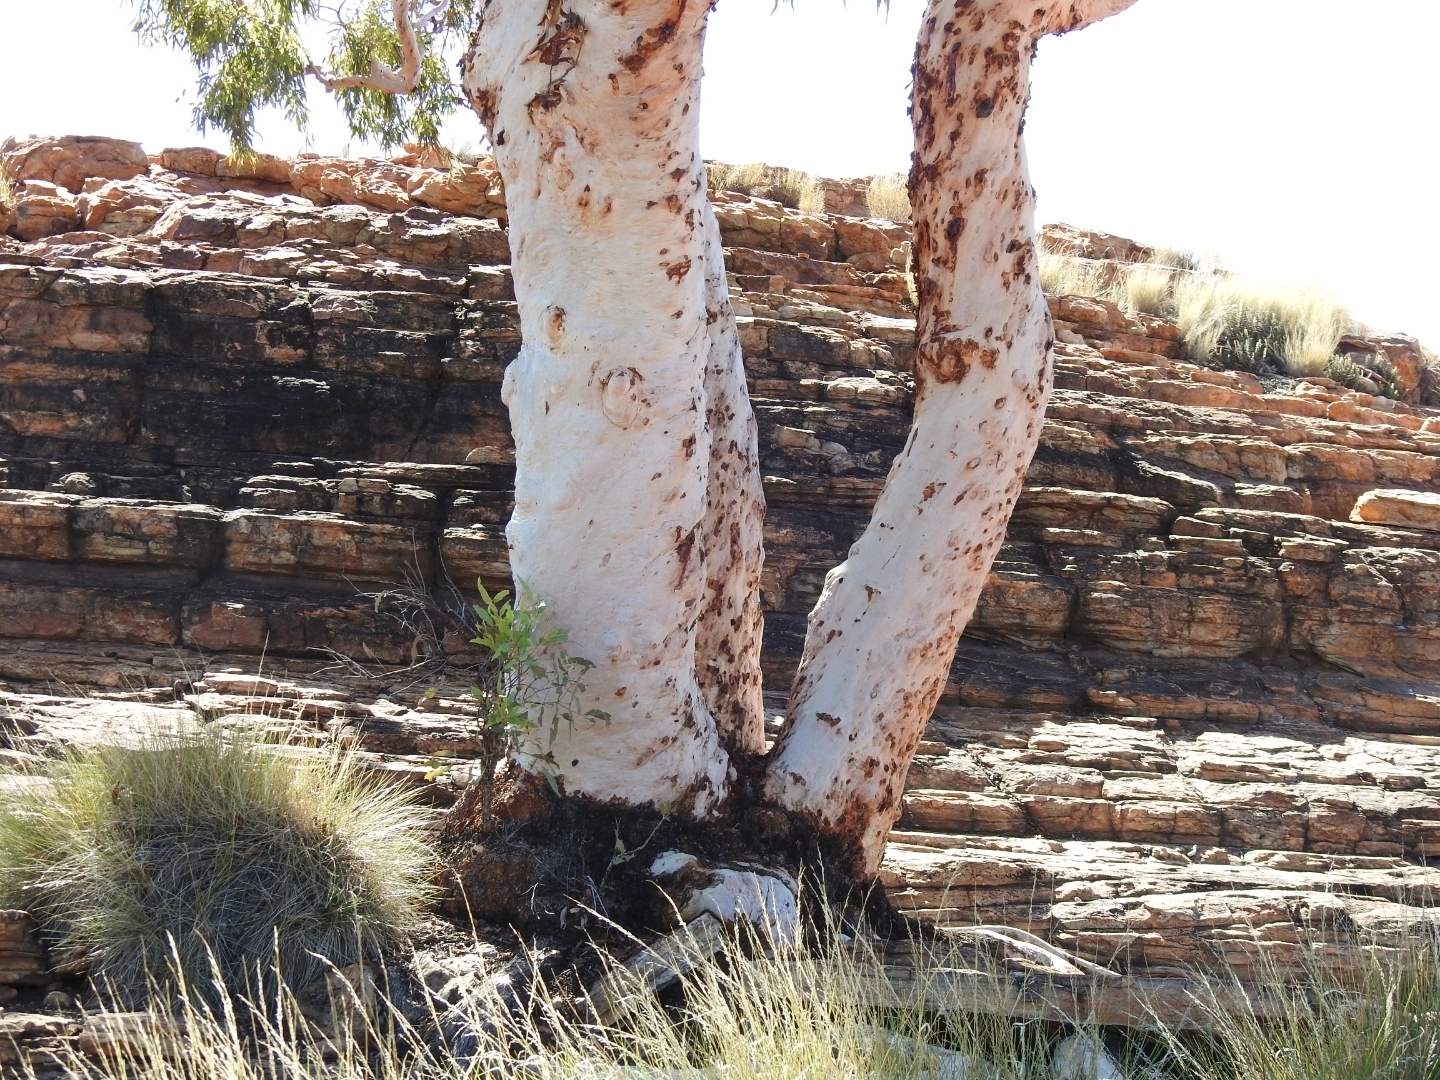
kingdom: Plantae
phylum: Tracheophyta
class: Magnoliopsida
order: Myrtales
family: Myrtaceae
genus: Corymbia
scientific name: Corymbia aparrerinja
